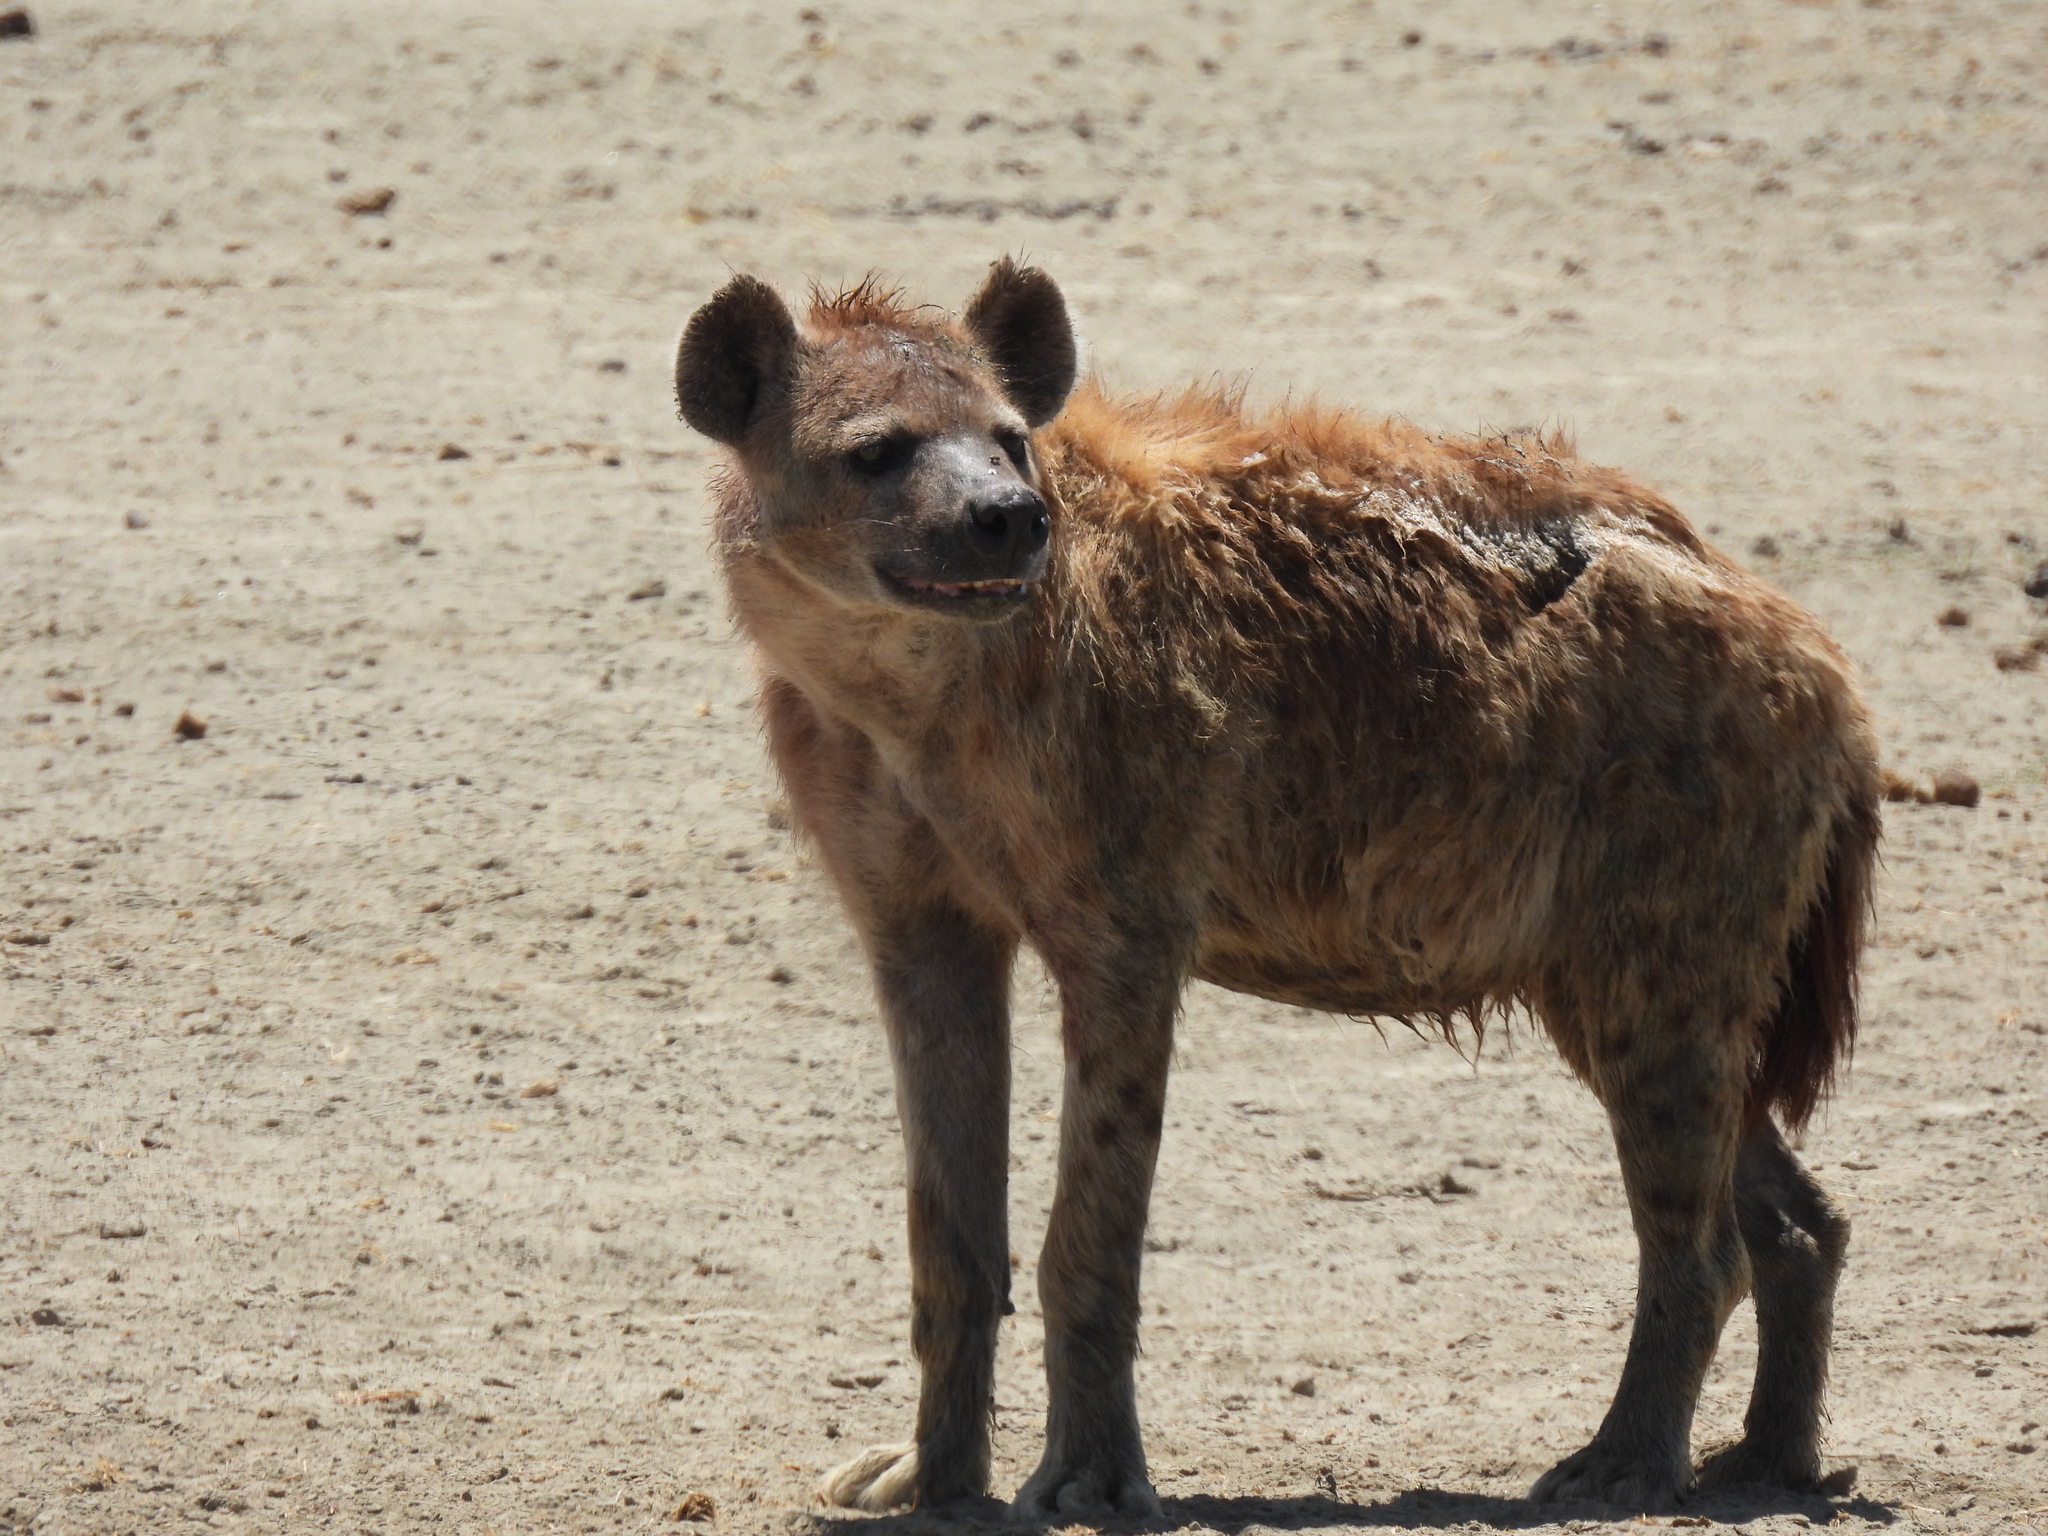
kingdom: Animalia
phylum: Chordata
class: Mammalia
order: Carnivora
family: Hyaenidae
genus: Crocuta
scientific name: Crocuta crocuta
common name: Spotted hyaena
